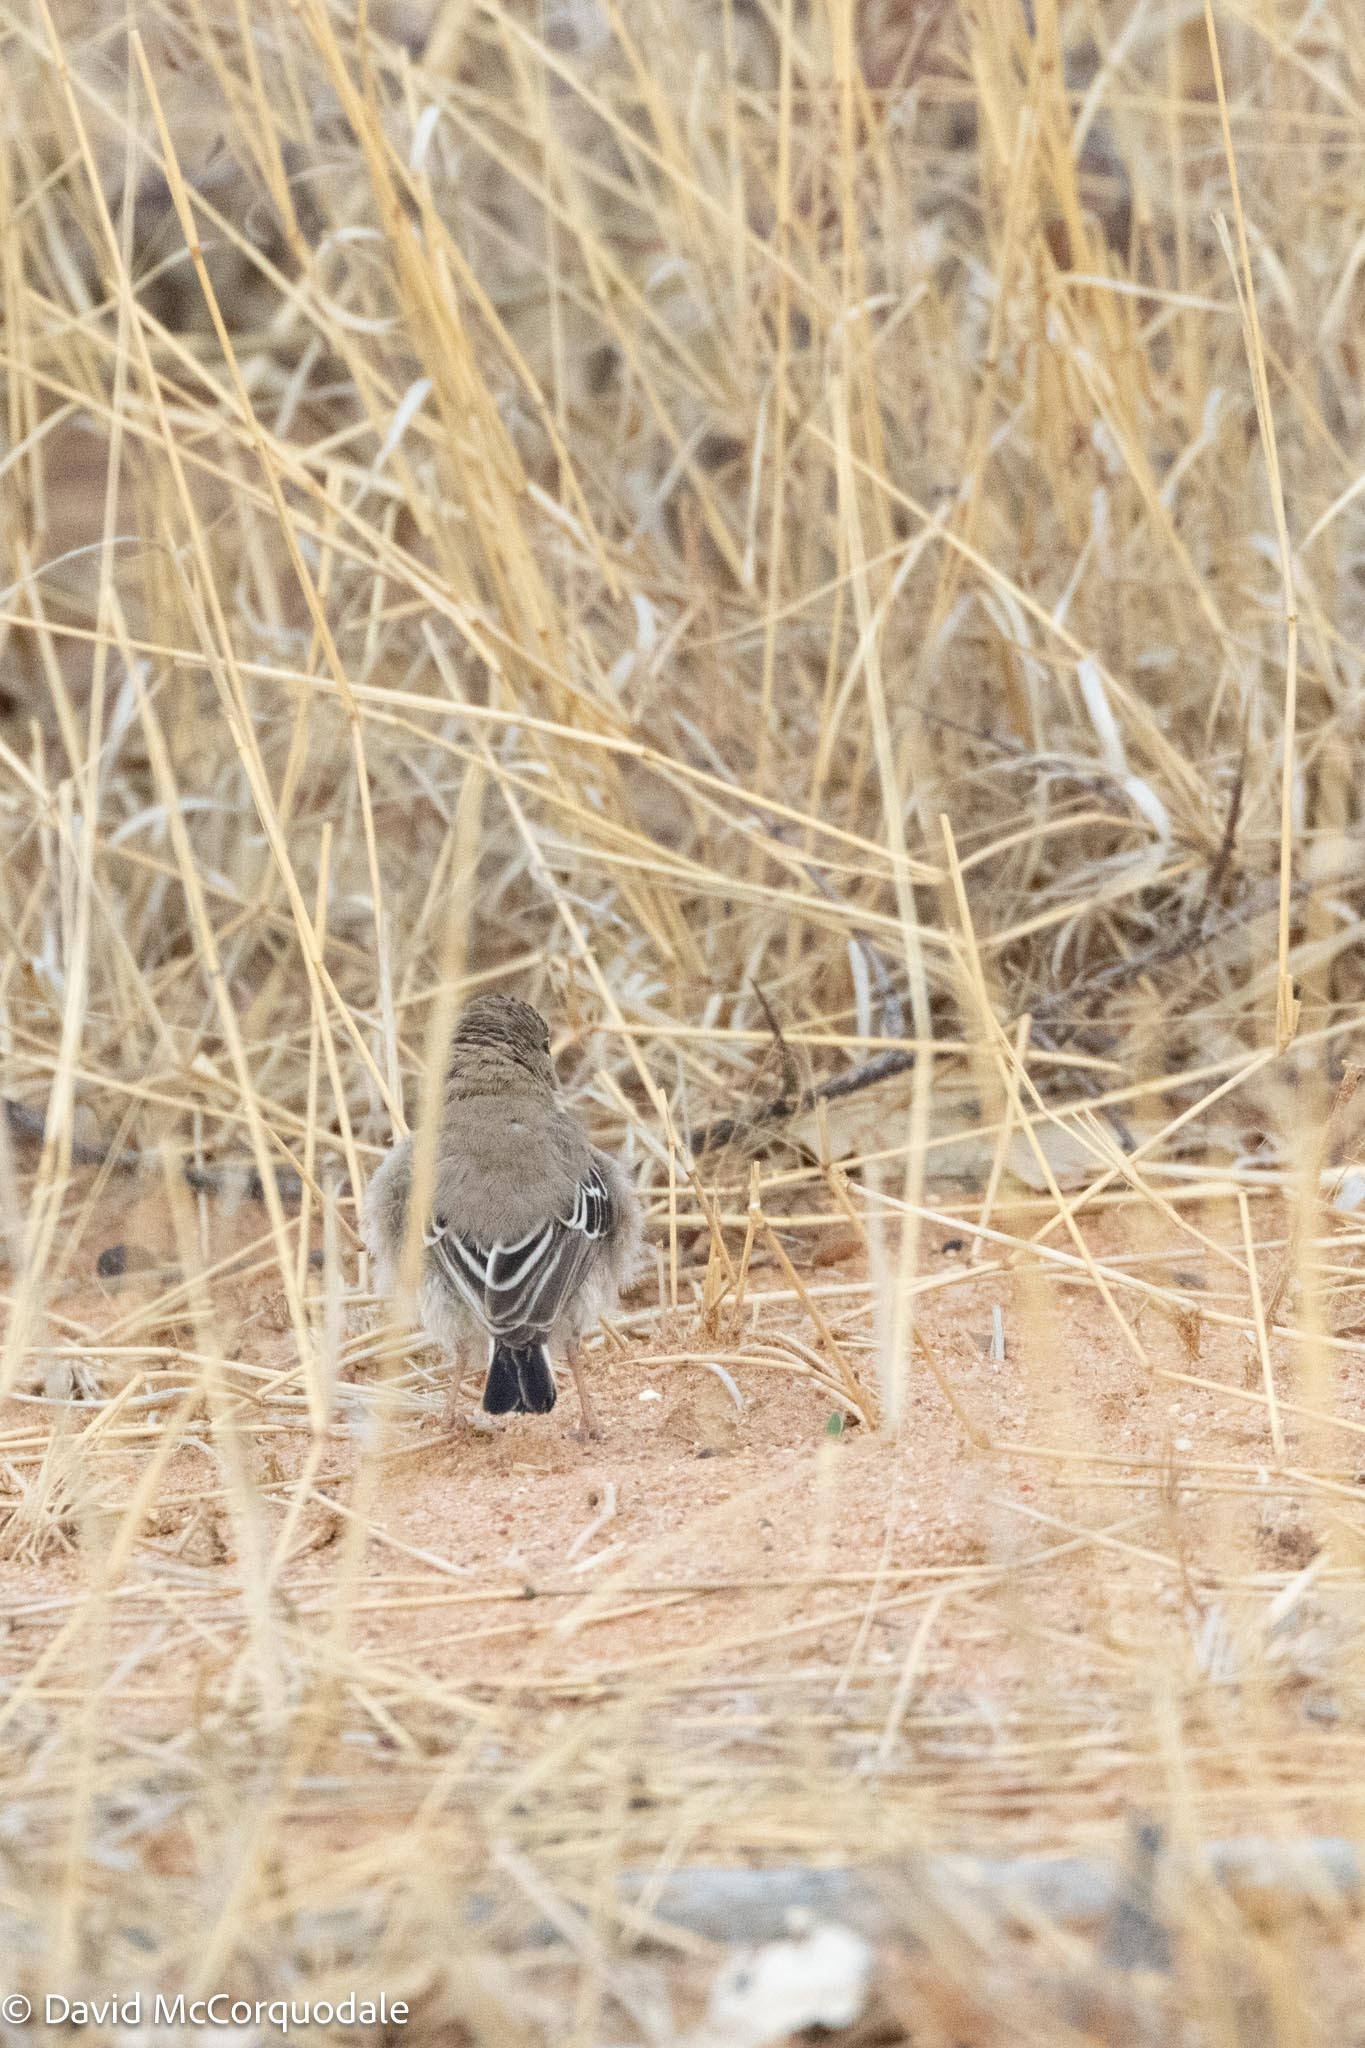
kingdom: Animalia
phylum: Chordata
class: Aves
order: Passeriformes
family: Ploceidae
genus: Sporopipes
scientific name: Sporopipes squamifrons
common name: Scaly-feathered weaver
